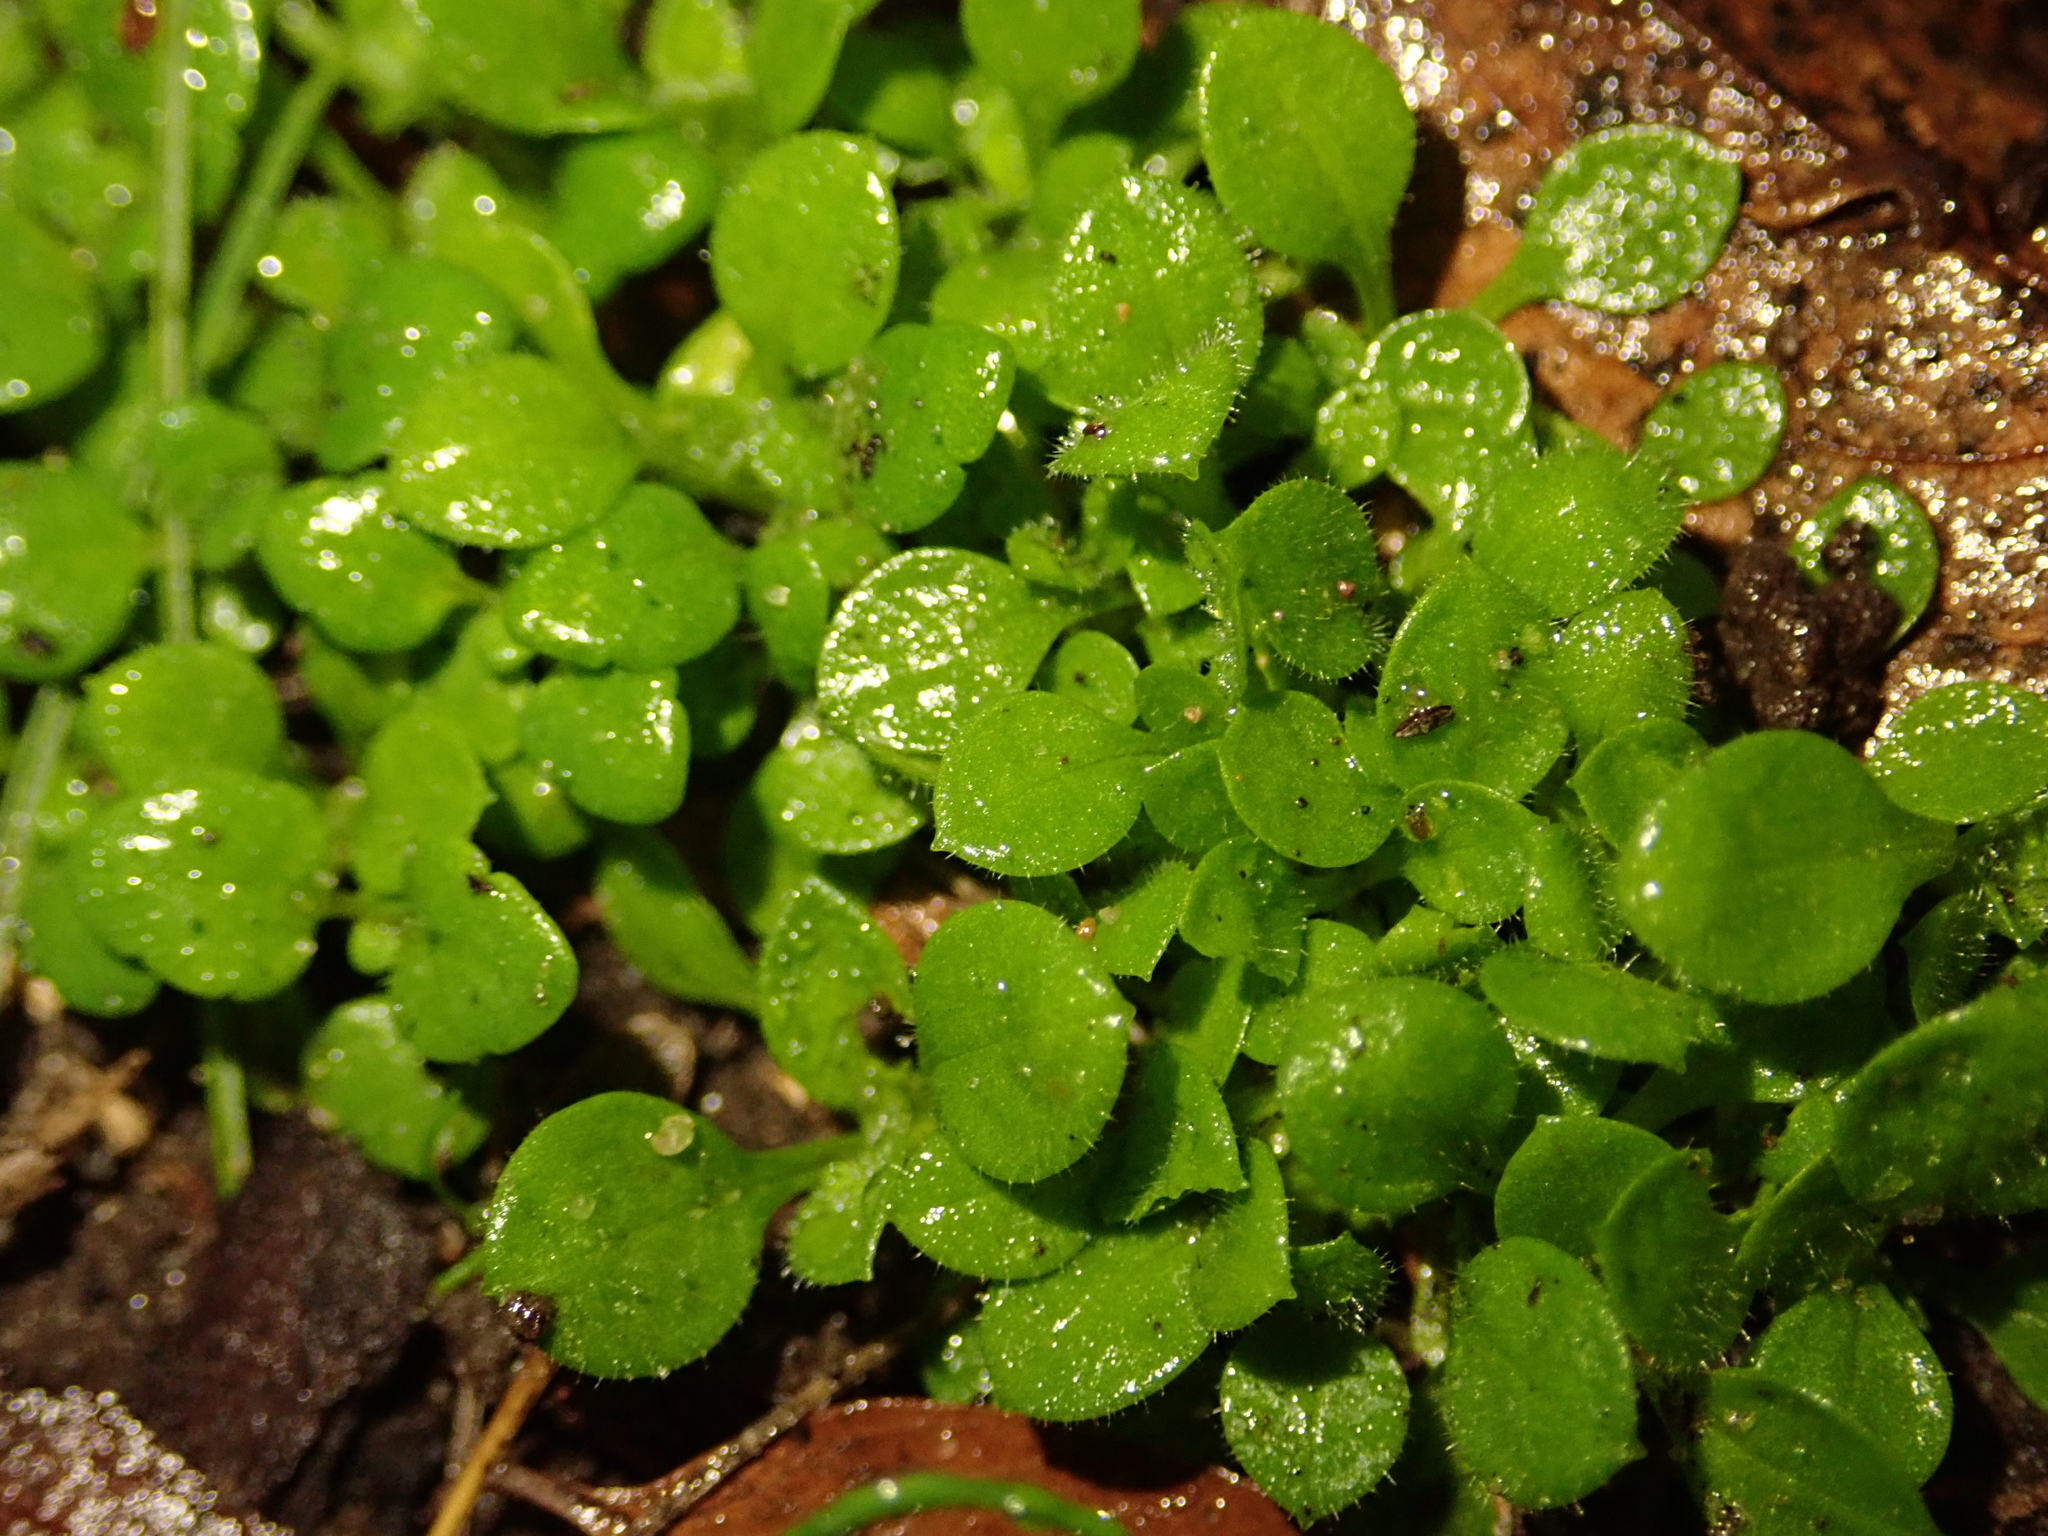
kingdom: Plantae
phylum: Tracheophyta
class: Magnoliopsida
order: Caryophyllales
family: Caryophyllaceae
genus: Stellaria
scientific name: Stellaria media
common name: Common chickweed
